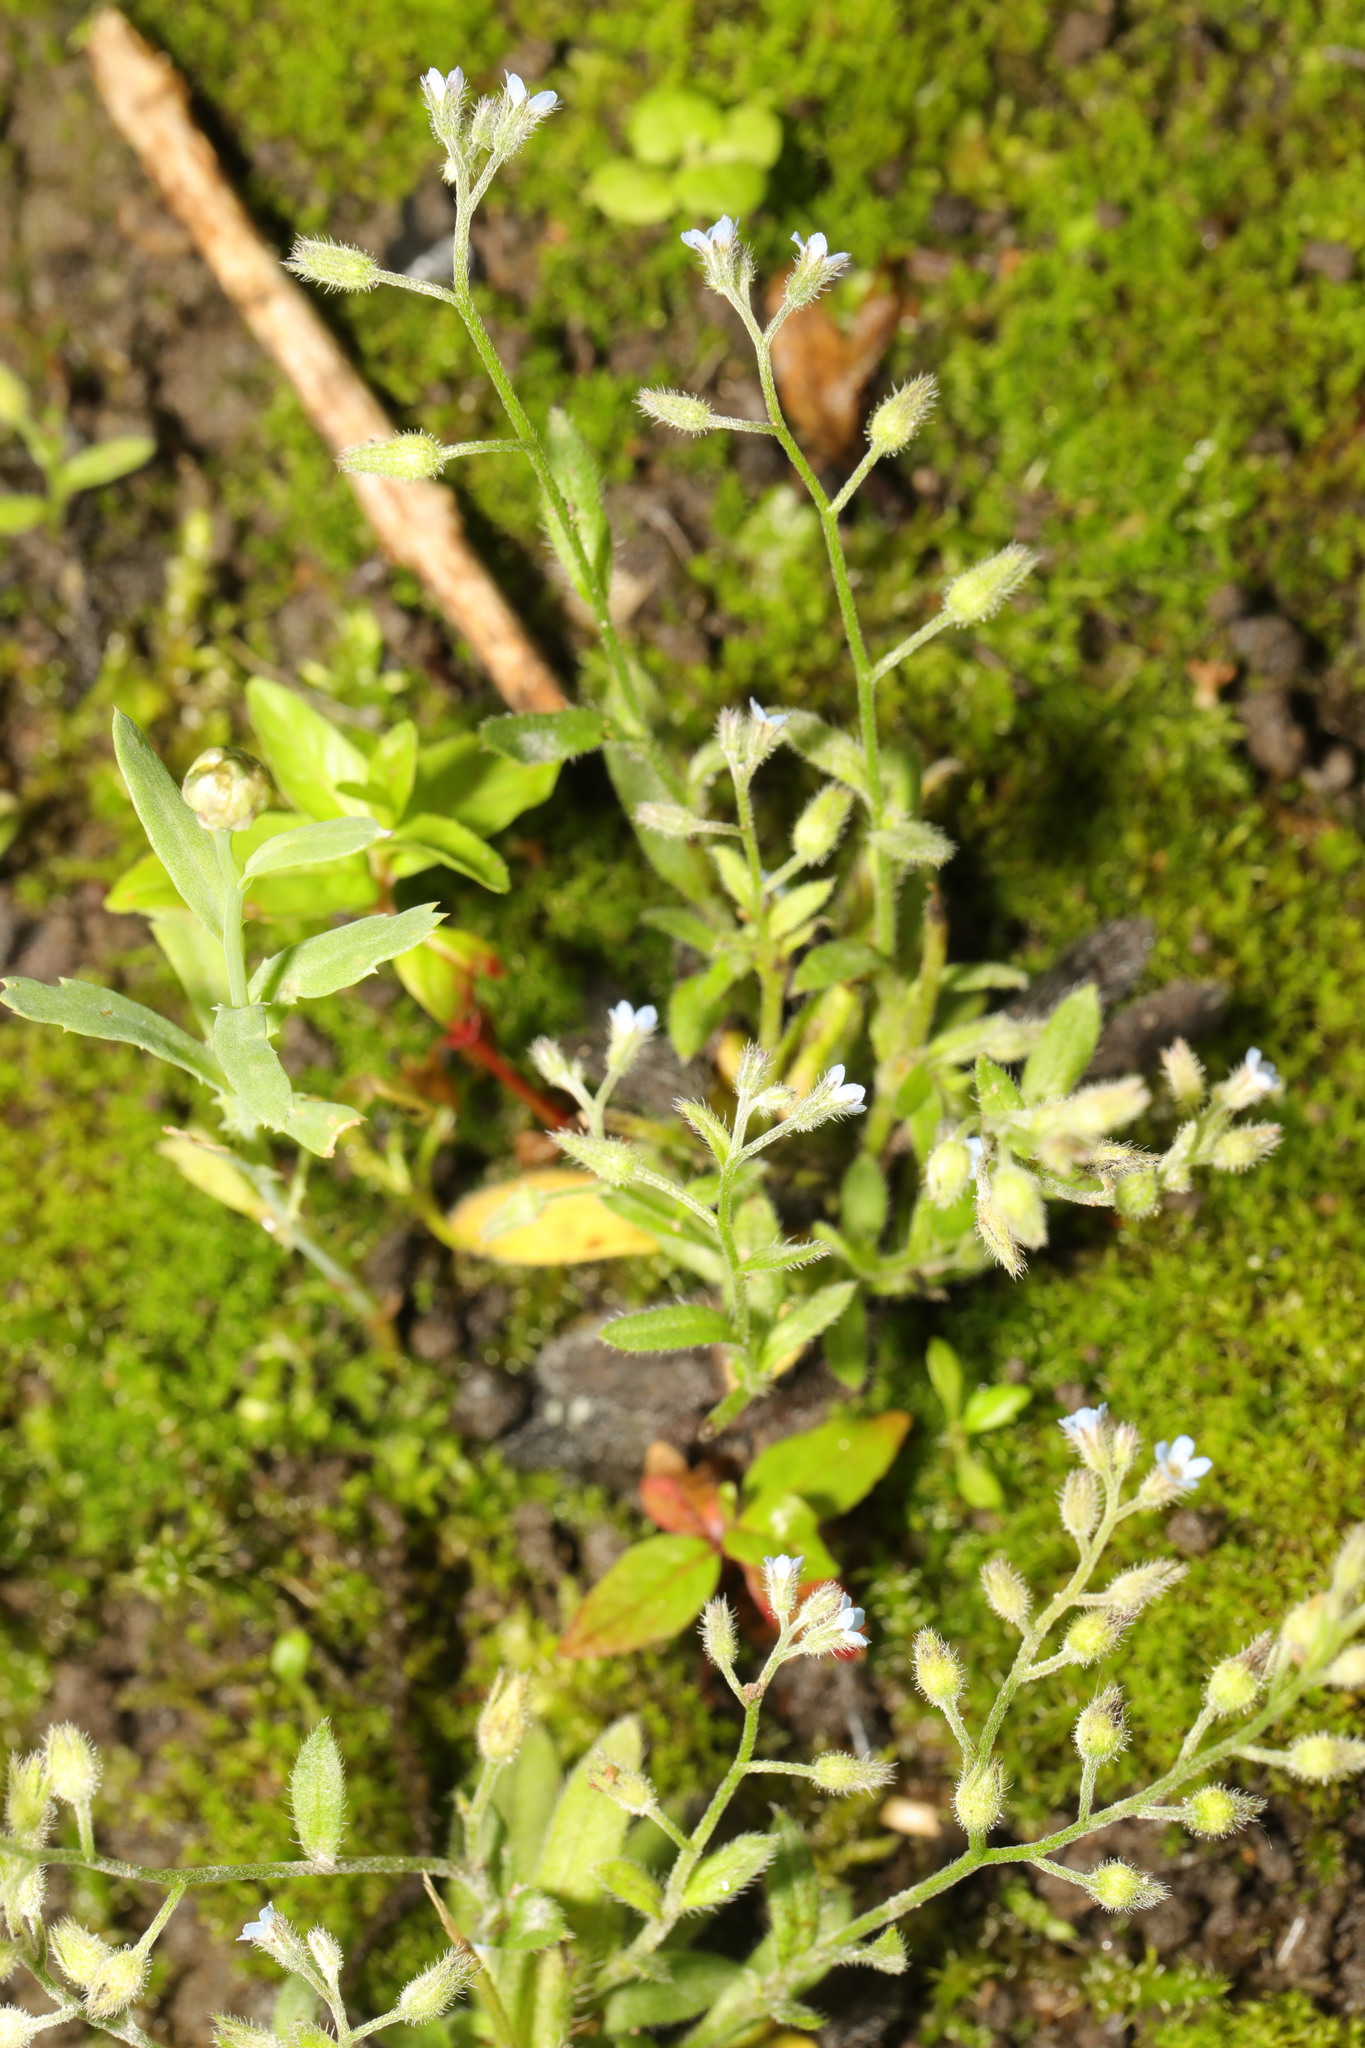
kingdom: Plantae
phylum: Tracheophyta
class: Magnoliopsida
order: Boraginales
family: Boraginaceae
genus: Myosotis
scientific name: Myosotis arvensis
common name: Field forget-me-not
